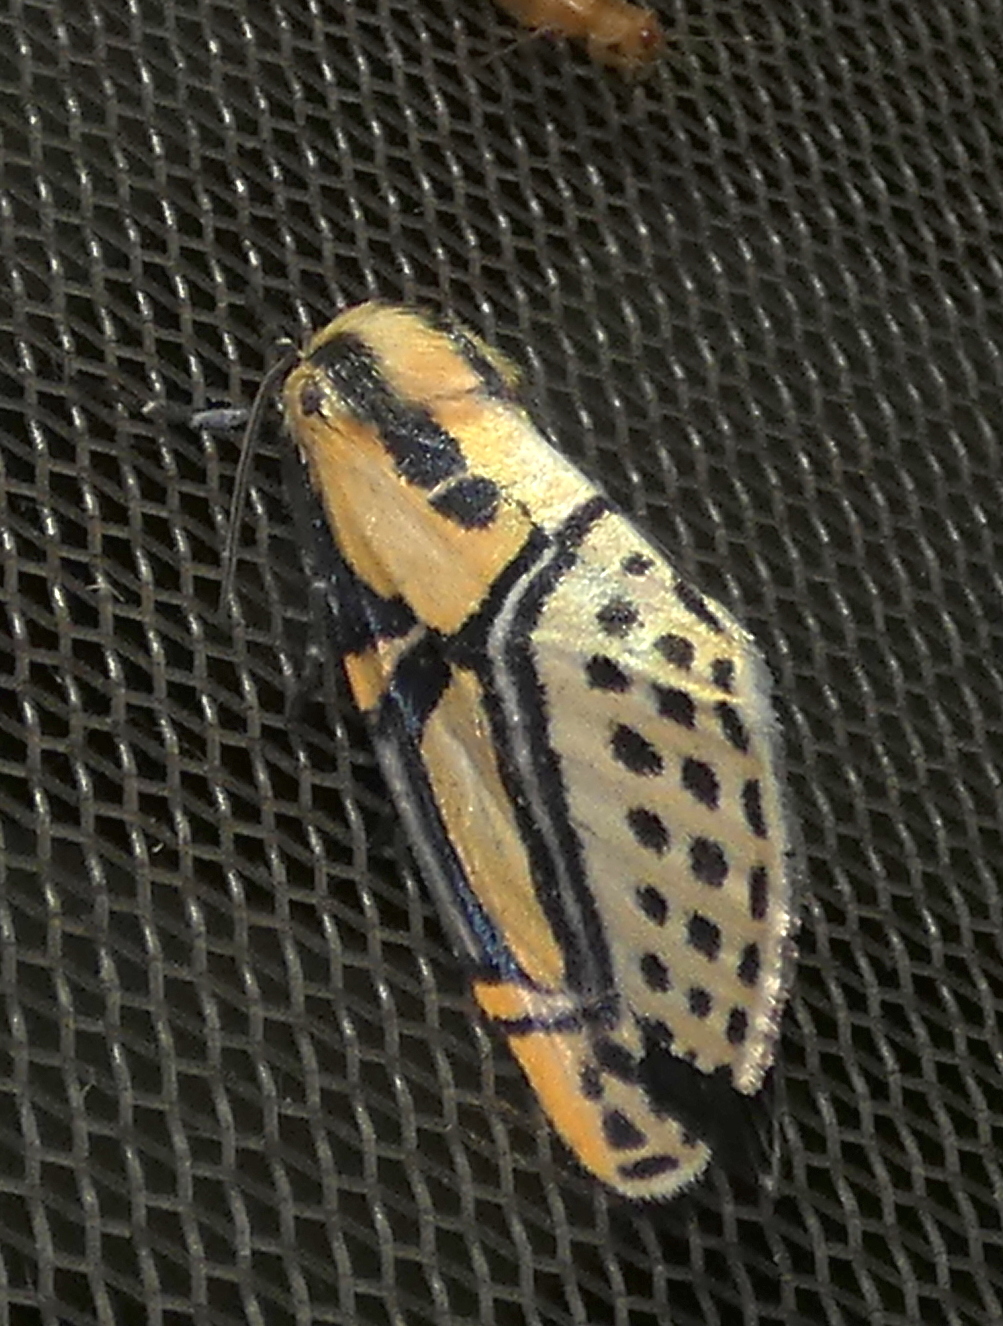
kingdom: Animalia
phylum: Arthropoda
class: Insecta
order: Lepidoptera
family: Erebidae
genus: Diphthera
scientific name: Diphthera festiva
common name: Hieroglyphic moth
